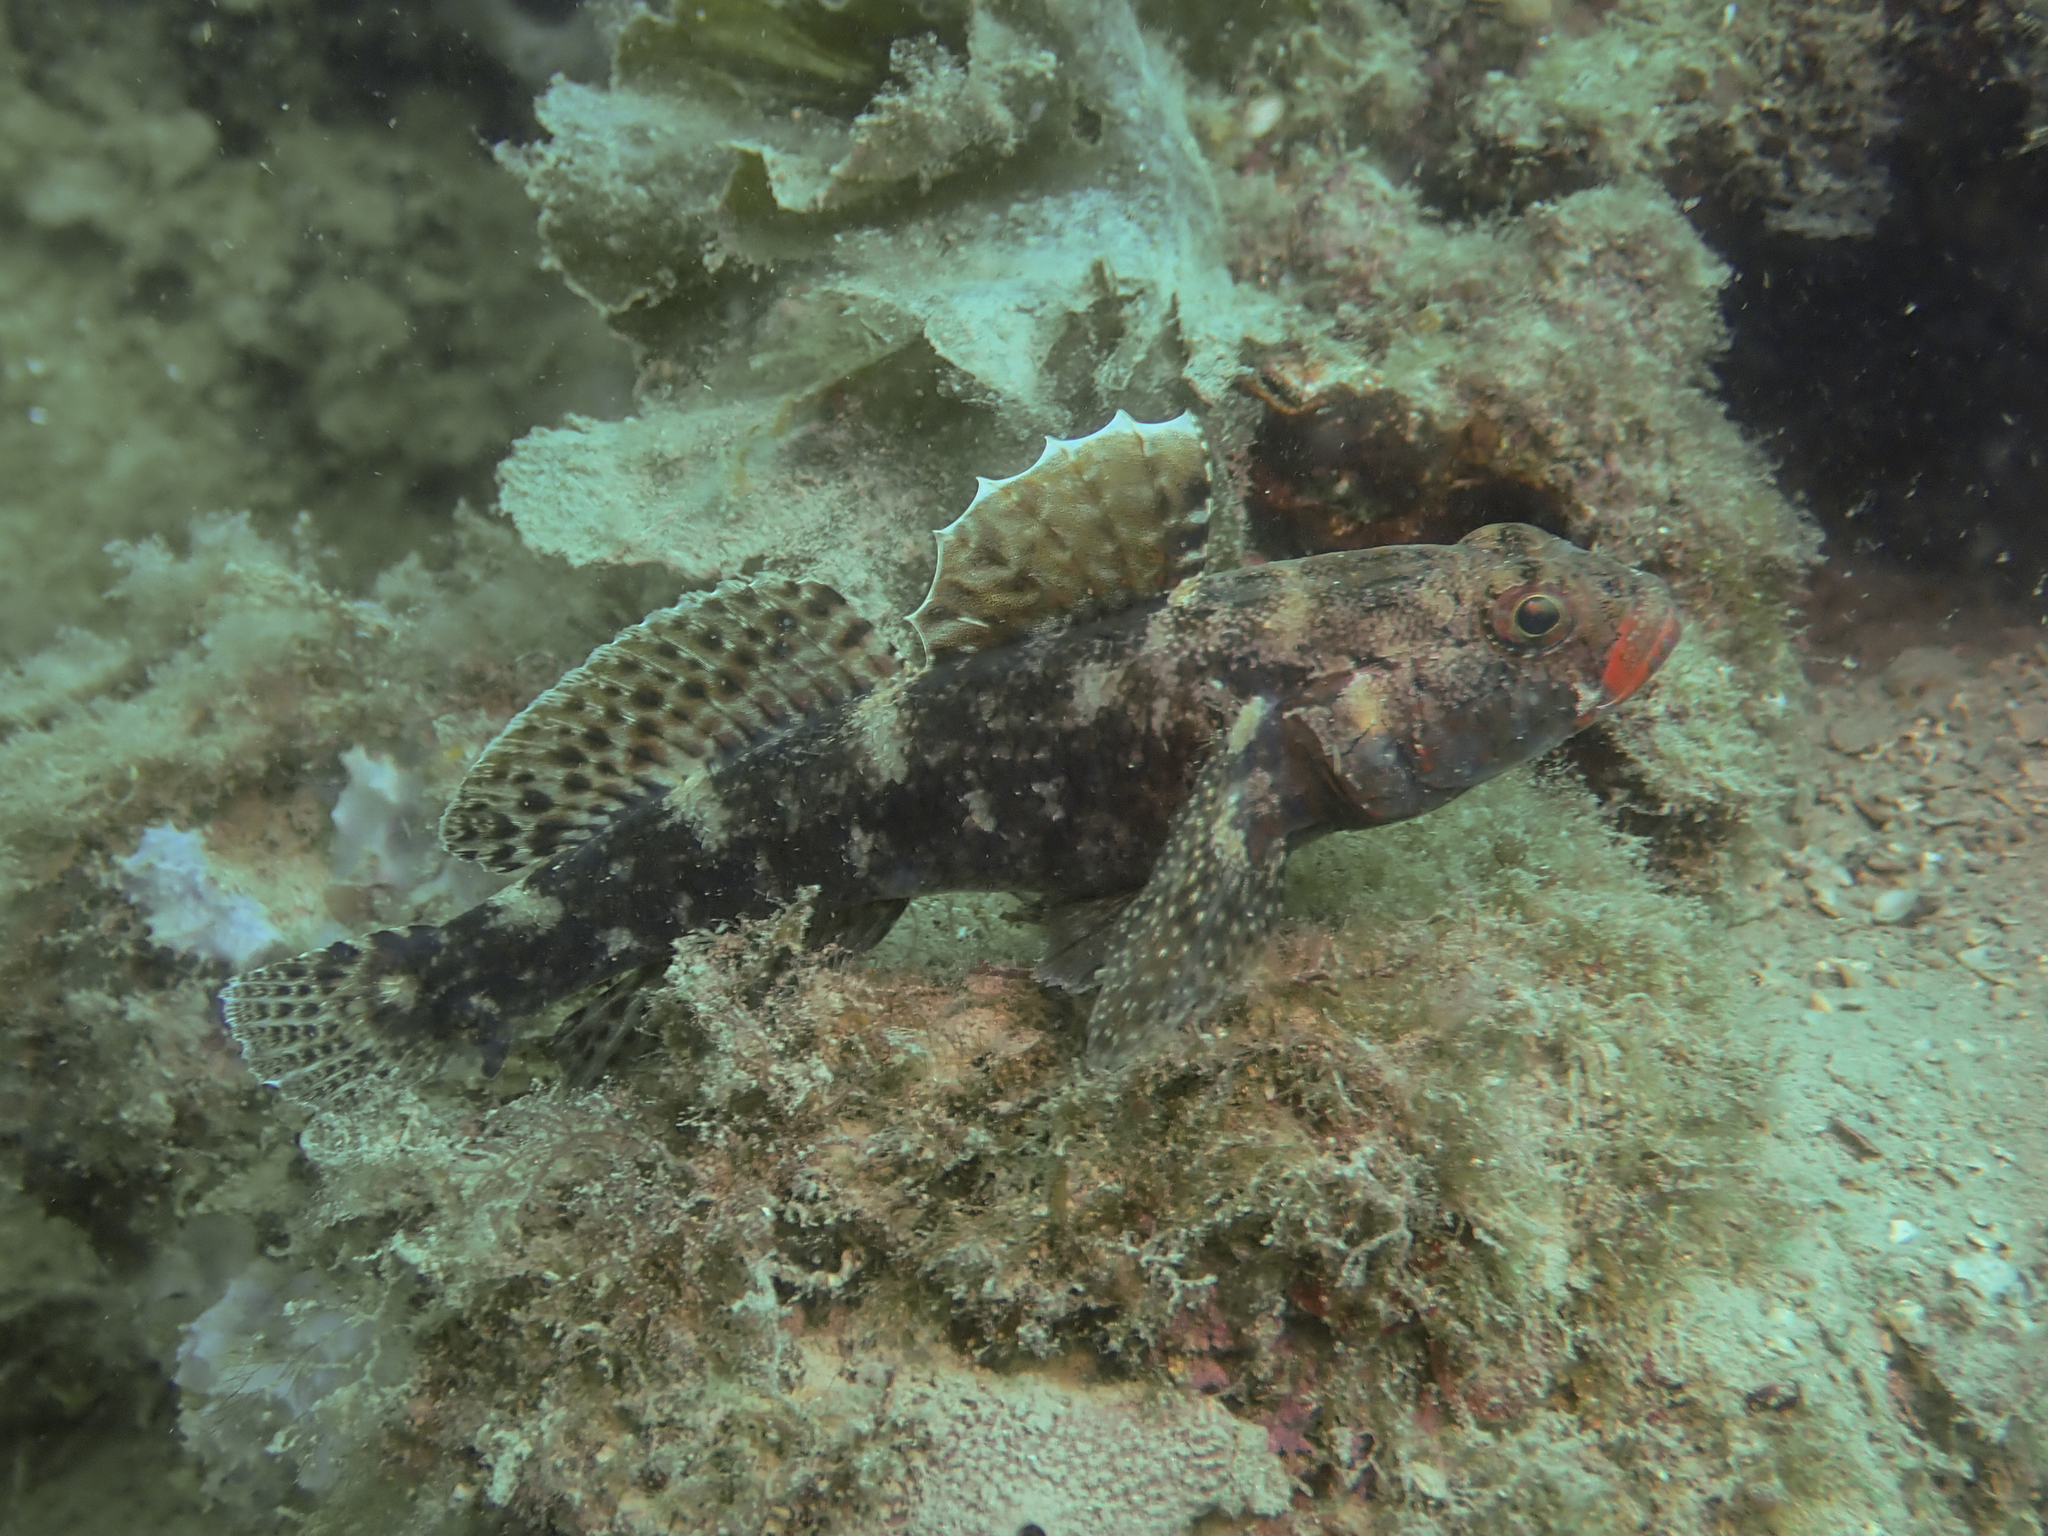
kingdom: Animalia
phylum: Chordata
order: Perciformes
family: Gobiidae
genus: Gobius
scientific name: Gobius cruentatus
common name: Red-mouthed goby
